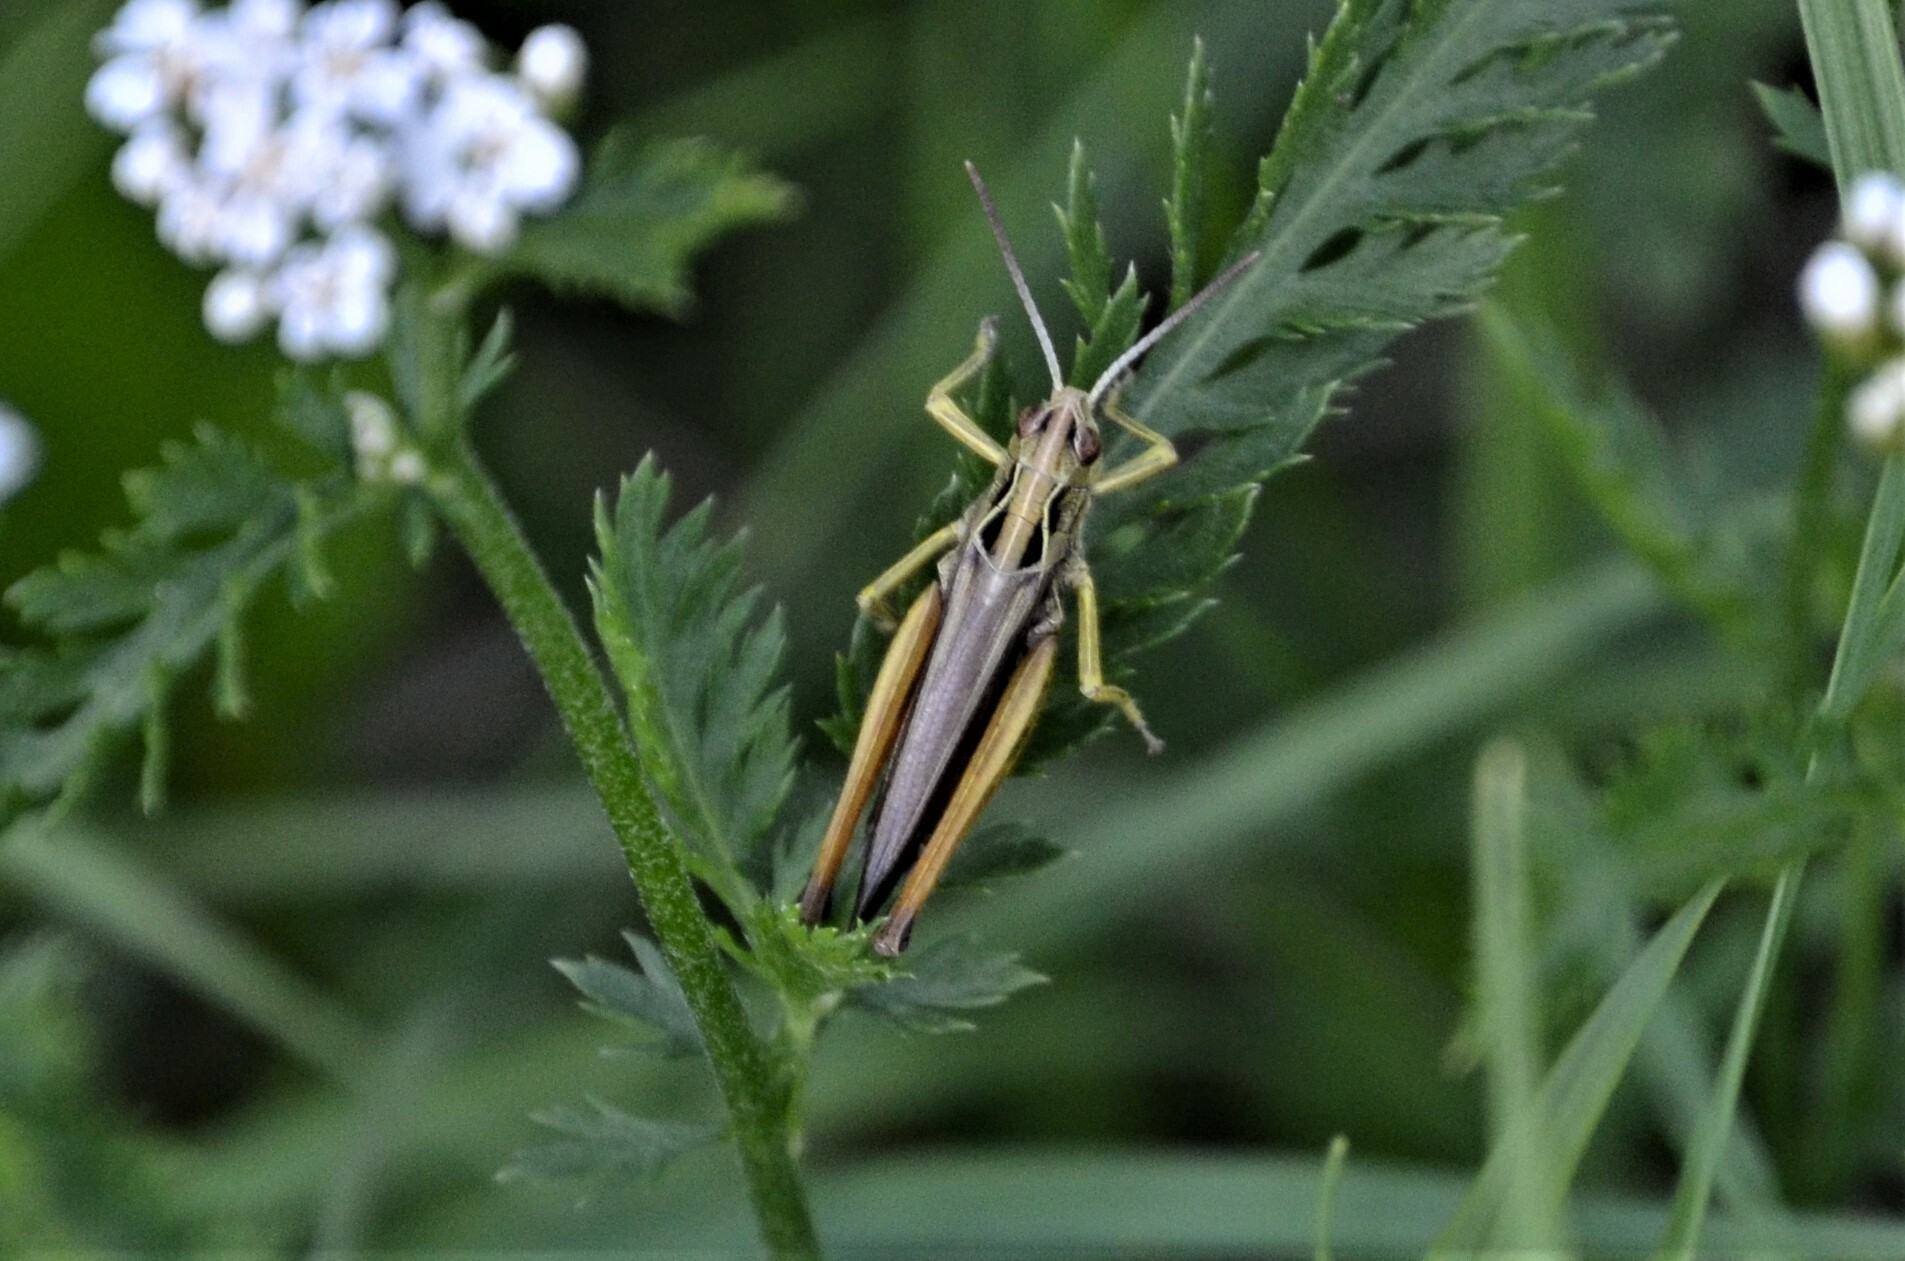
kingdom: Animalia
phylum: Arthropoda
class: Insecta
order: Orthoptera
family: Acrididae
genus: Omocestus
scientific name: Omocestus viridulus
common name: Common green grasshopper
